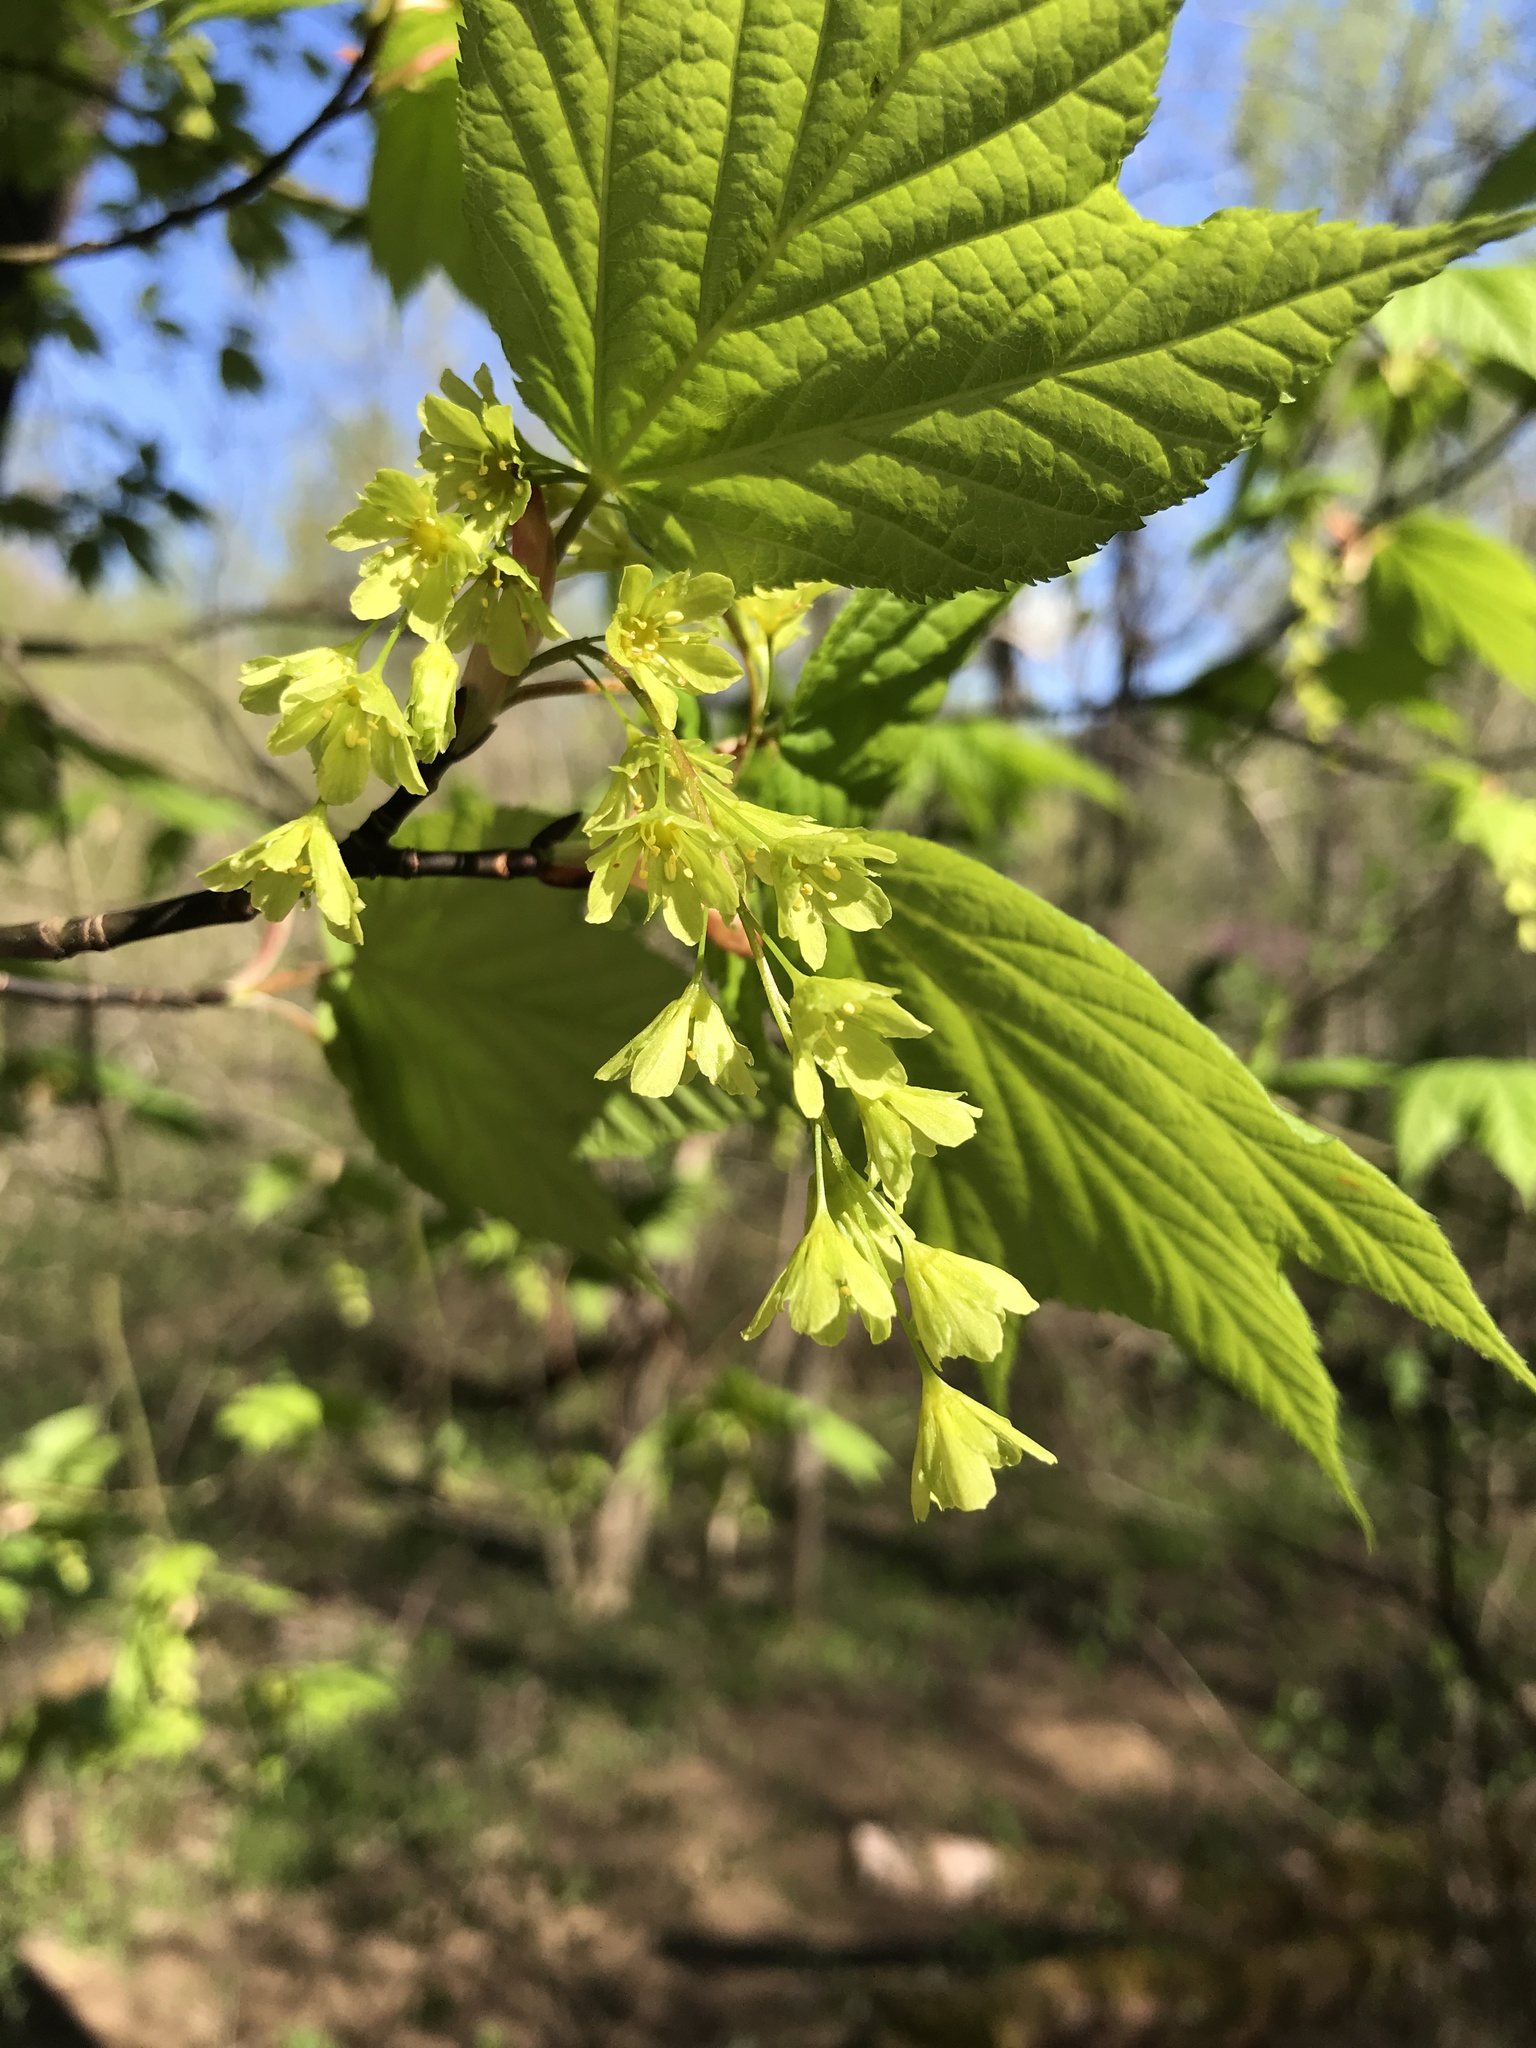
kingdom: Plantae
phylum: Tracheophyta
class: Magnoliopsida
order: Sapindales
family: Sapindaceae
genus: Acer
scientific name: Acer pensylvanicum
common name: Moosewood
